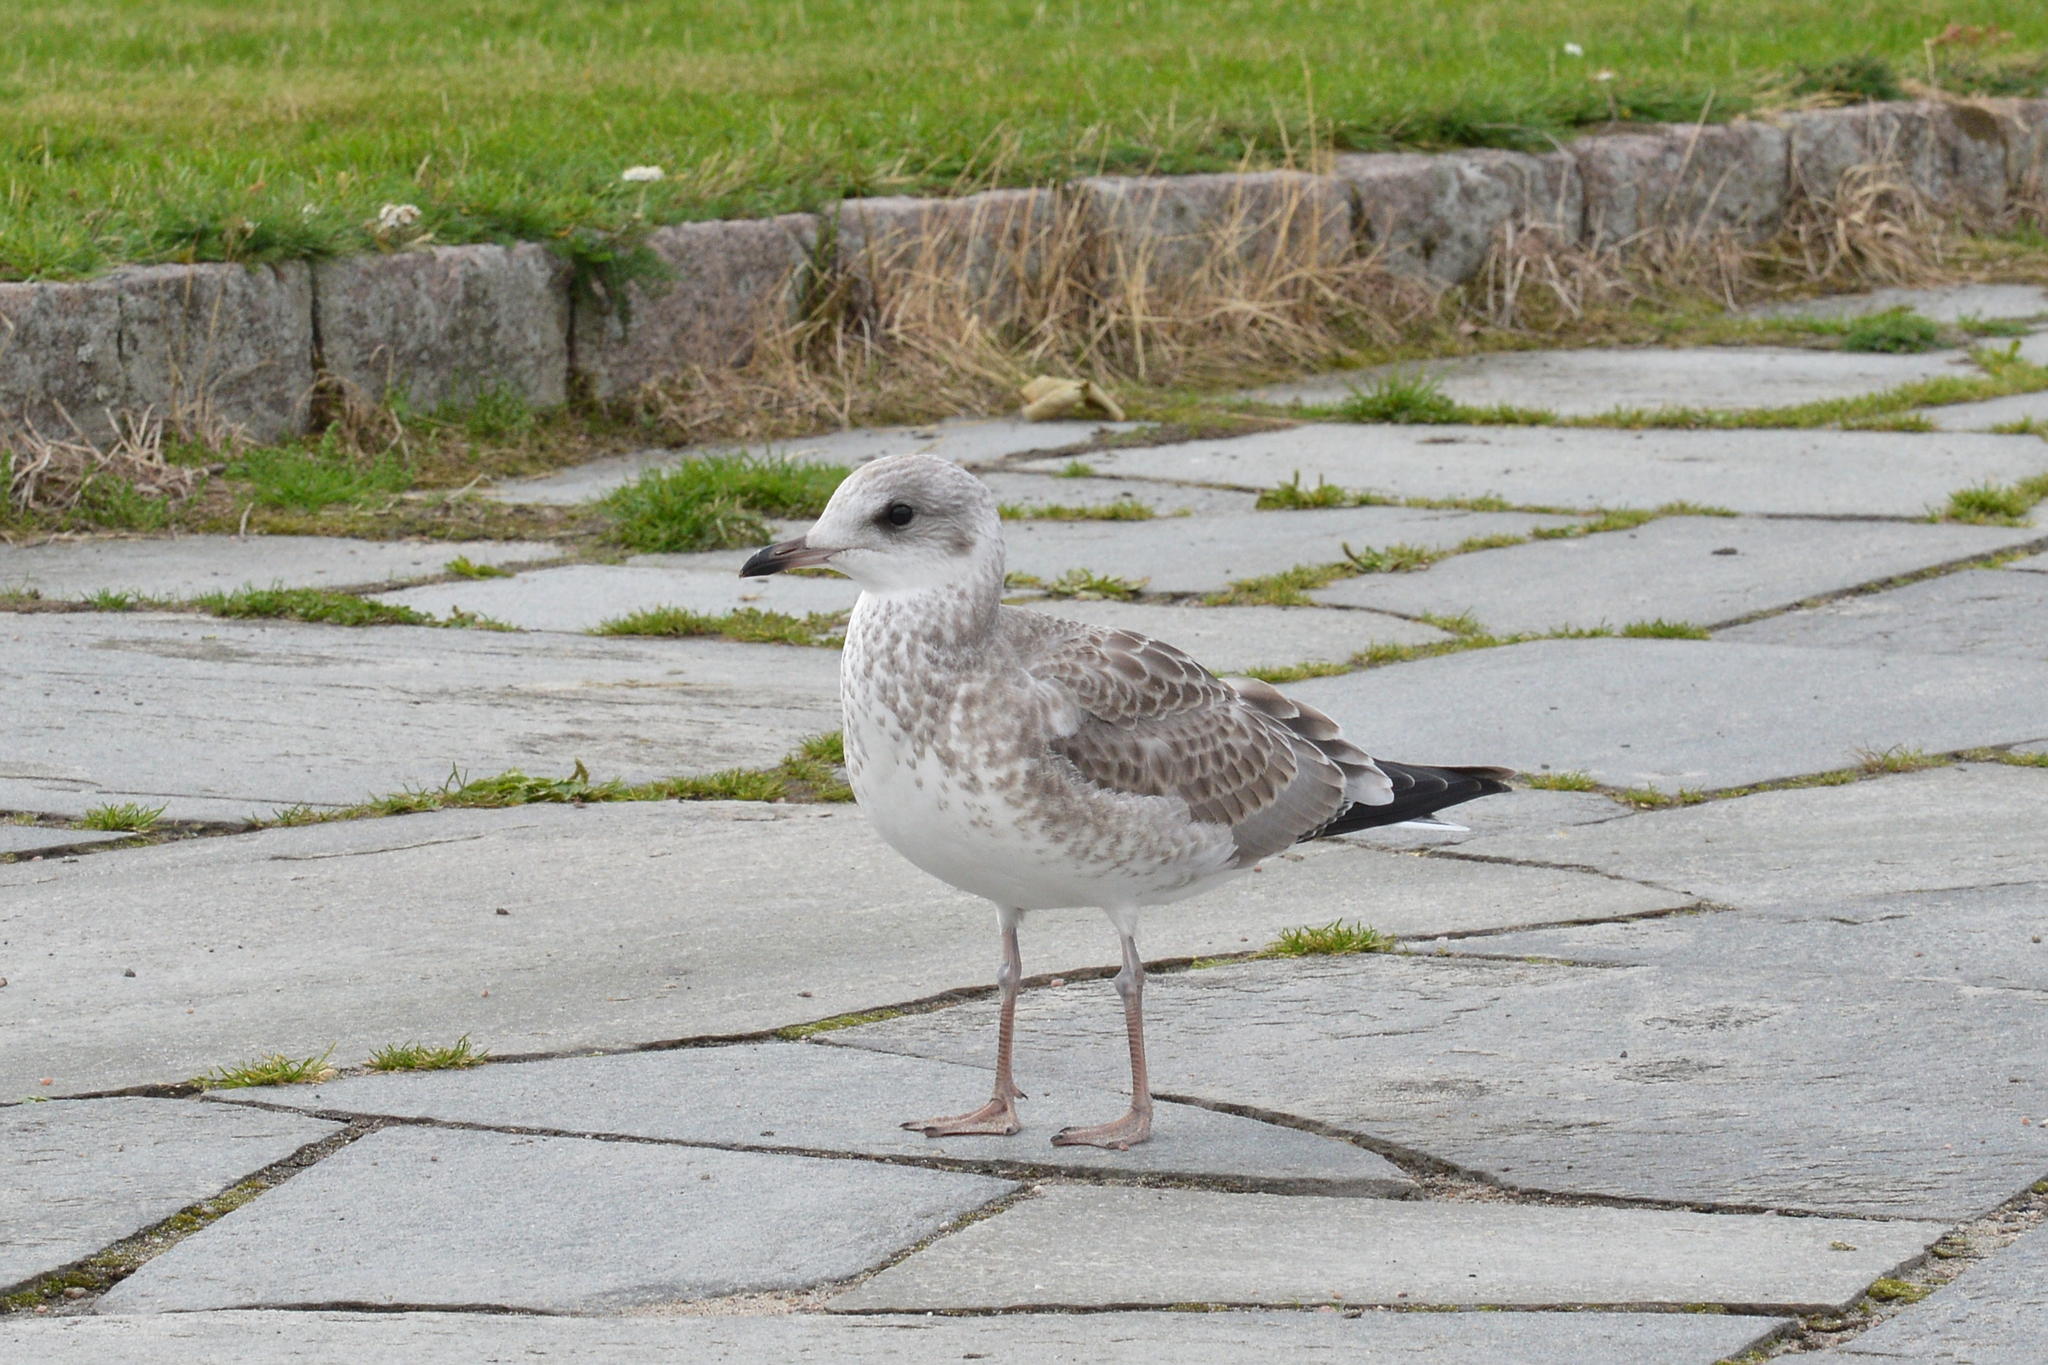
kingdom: Animalia
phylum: Chordata
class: Aves
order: Charadriiformes
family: Laridae
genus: Larus
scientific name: Larus canus
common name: Mew gull
